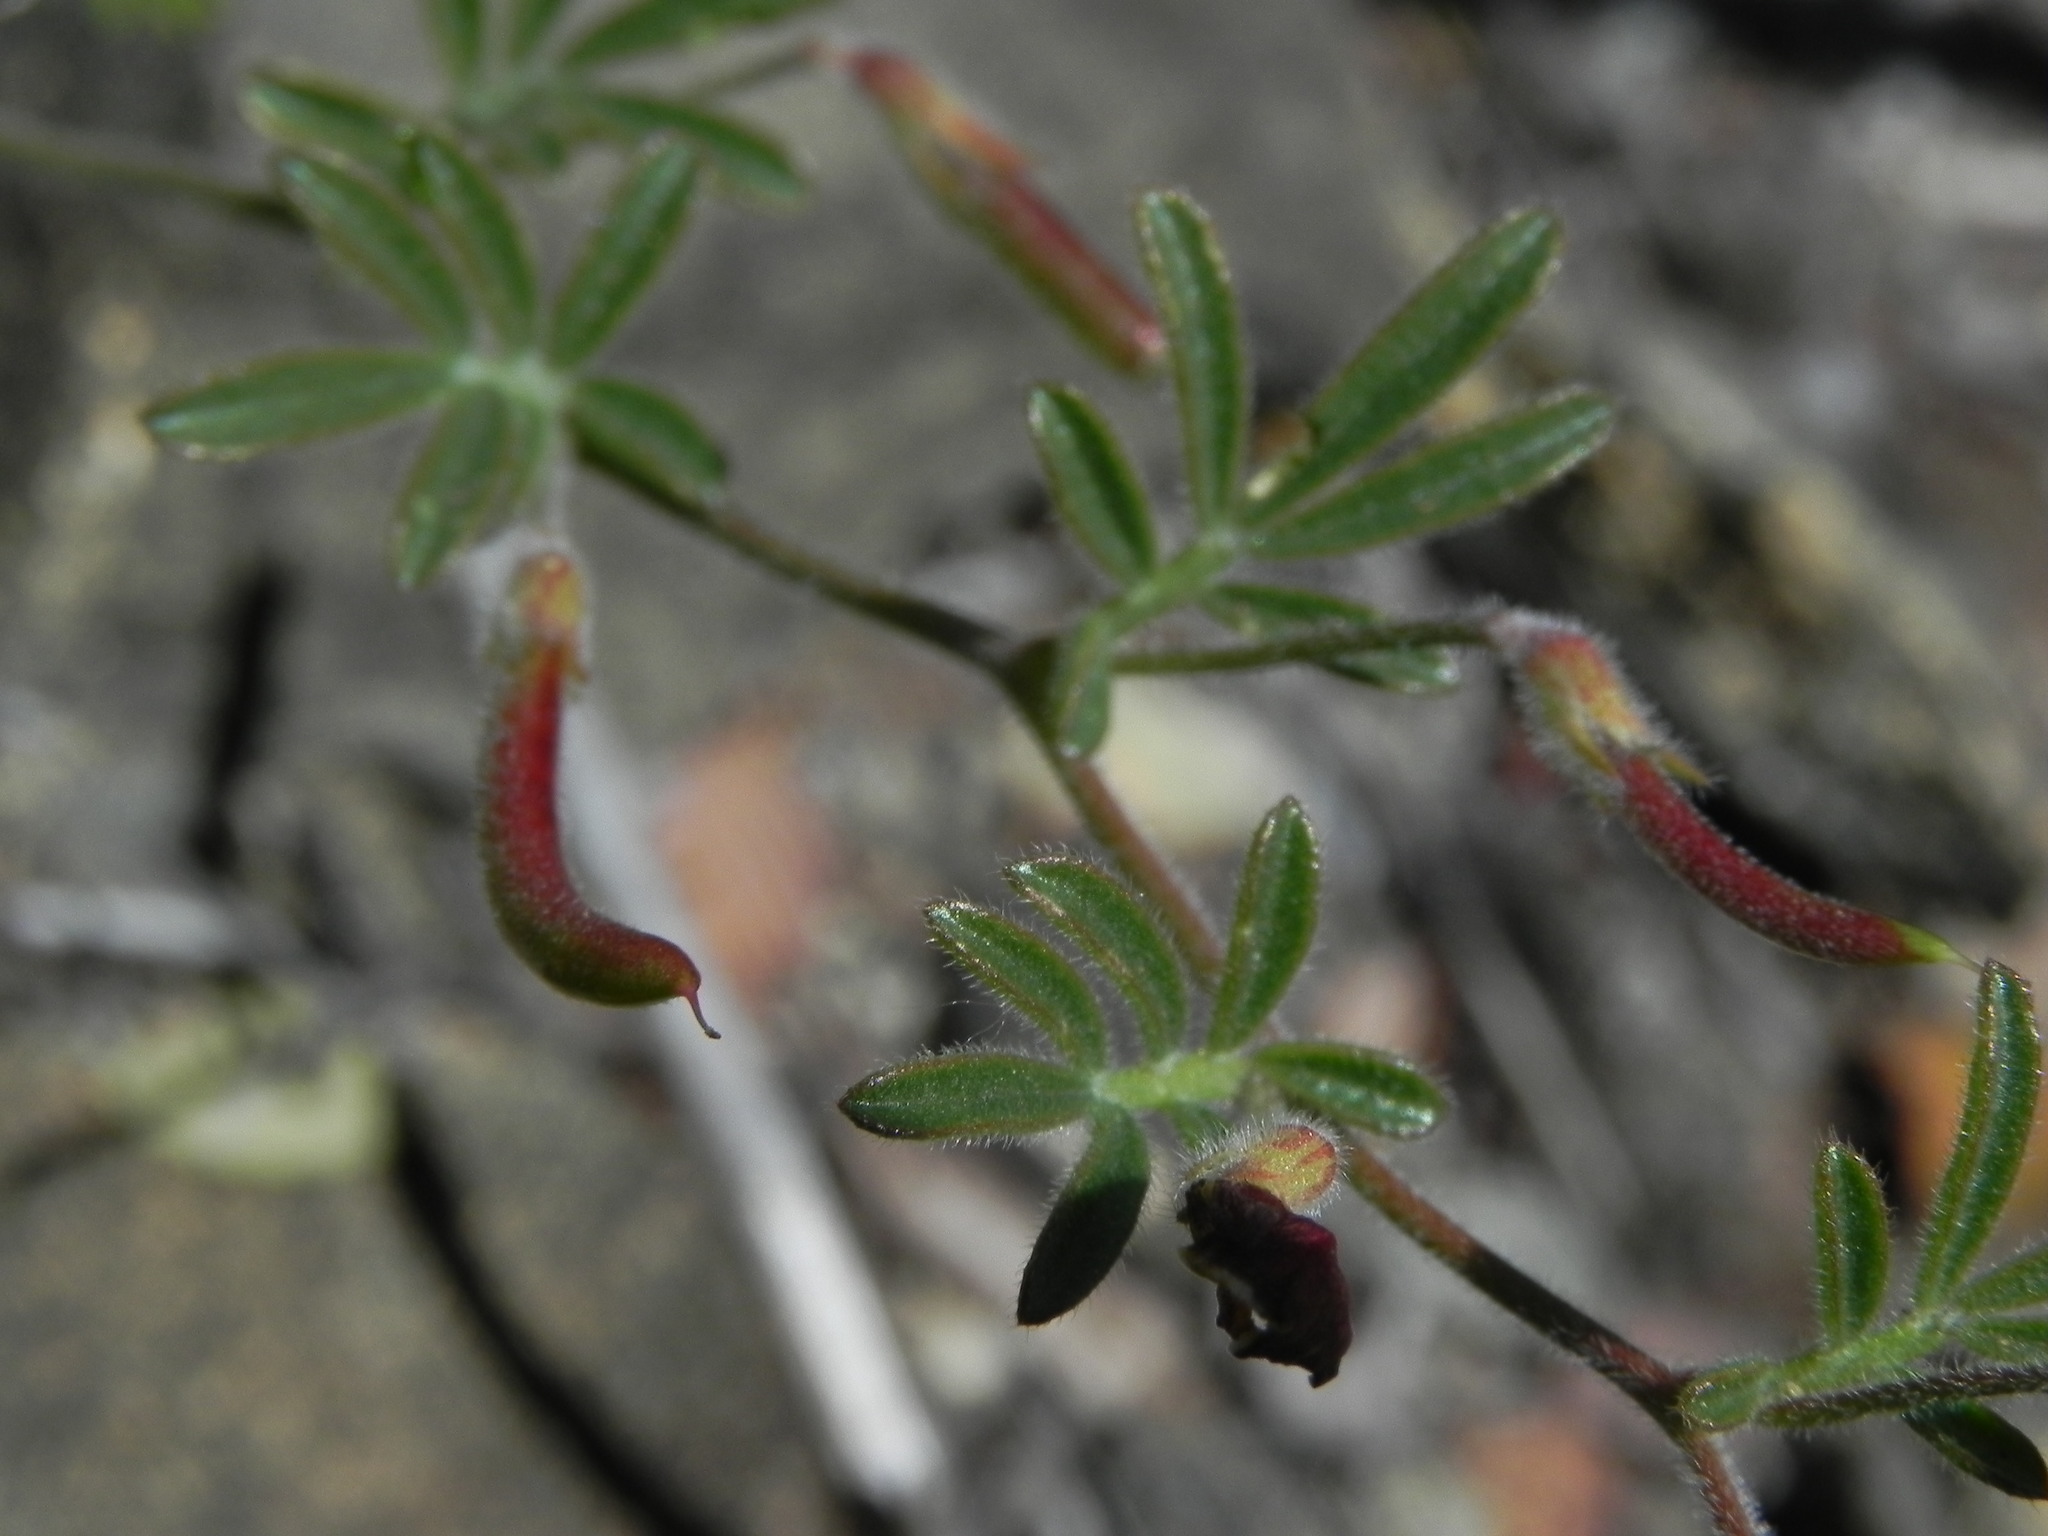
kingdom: Plantae
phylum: Tracheophyta
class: Magnoliopsida
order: Fabales
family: Fabaceae
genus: Acmispon
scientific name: Acmispon strigosus
